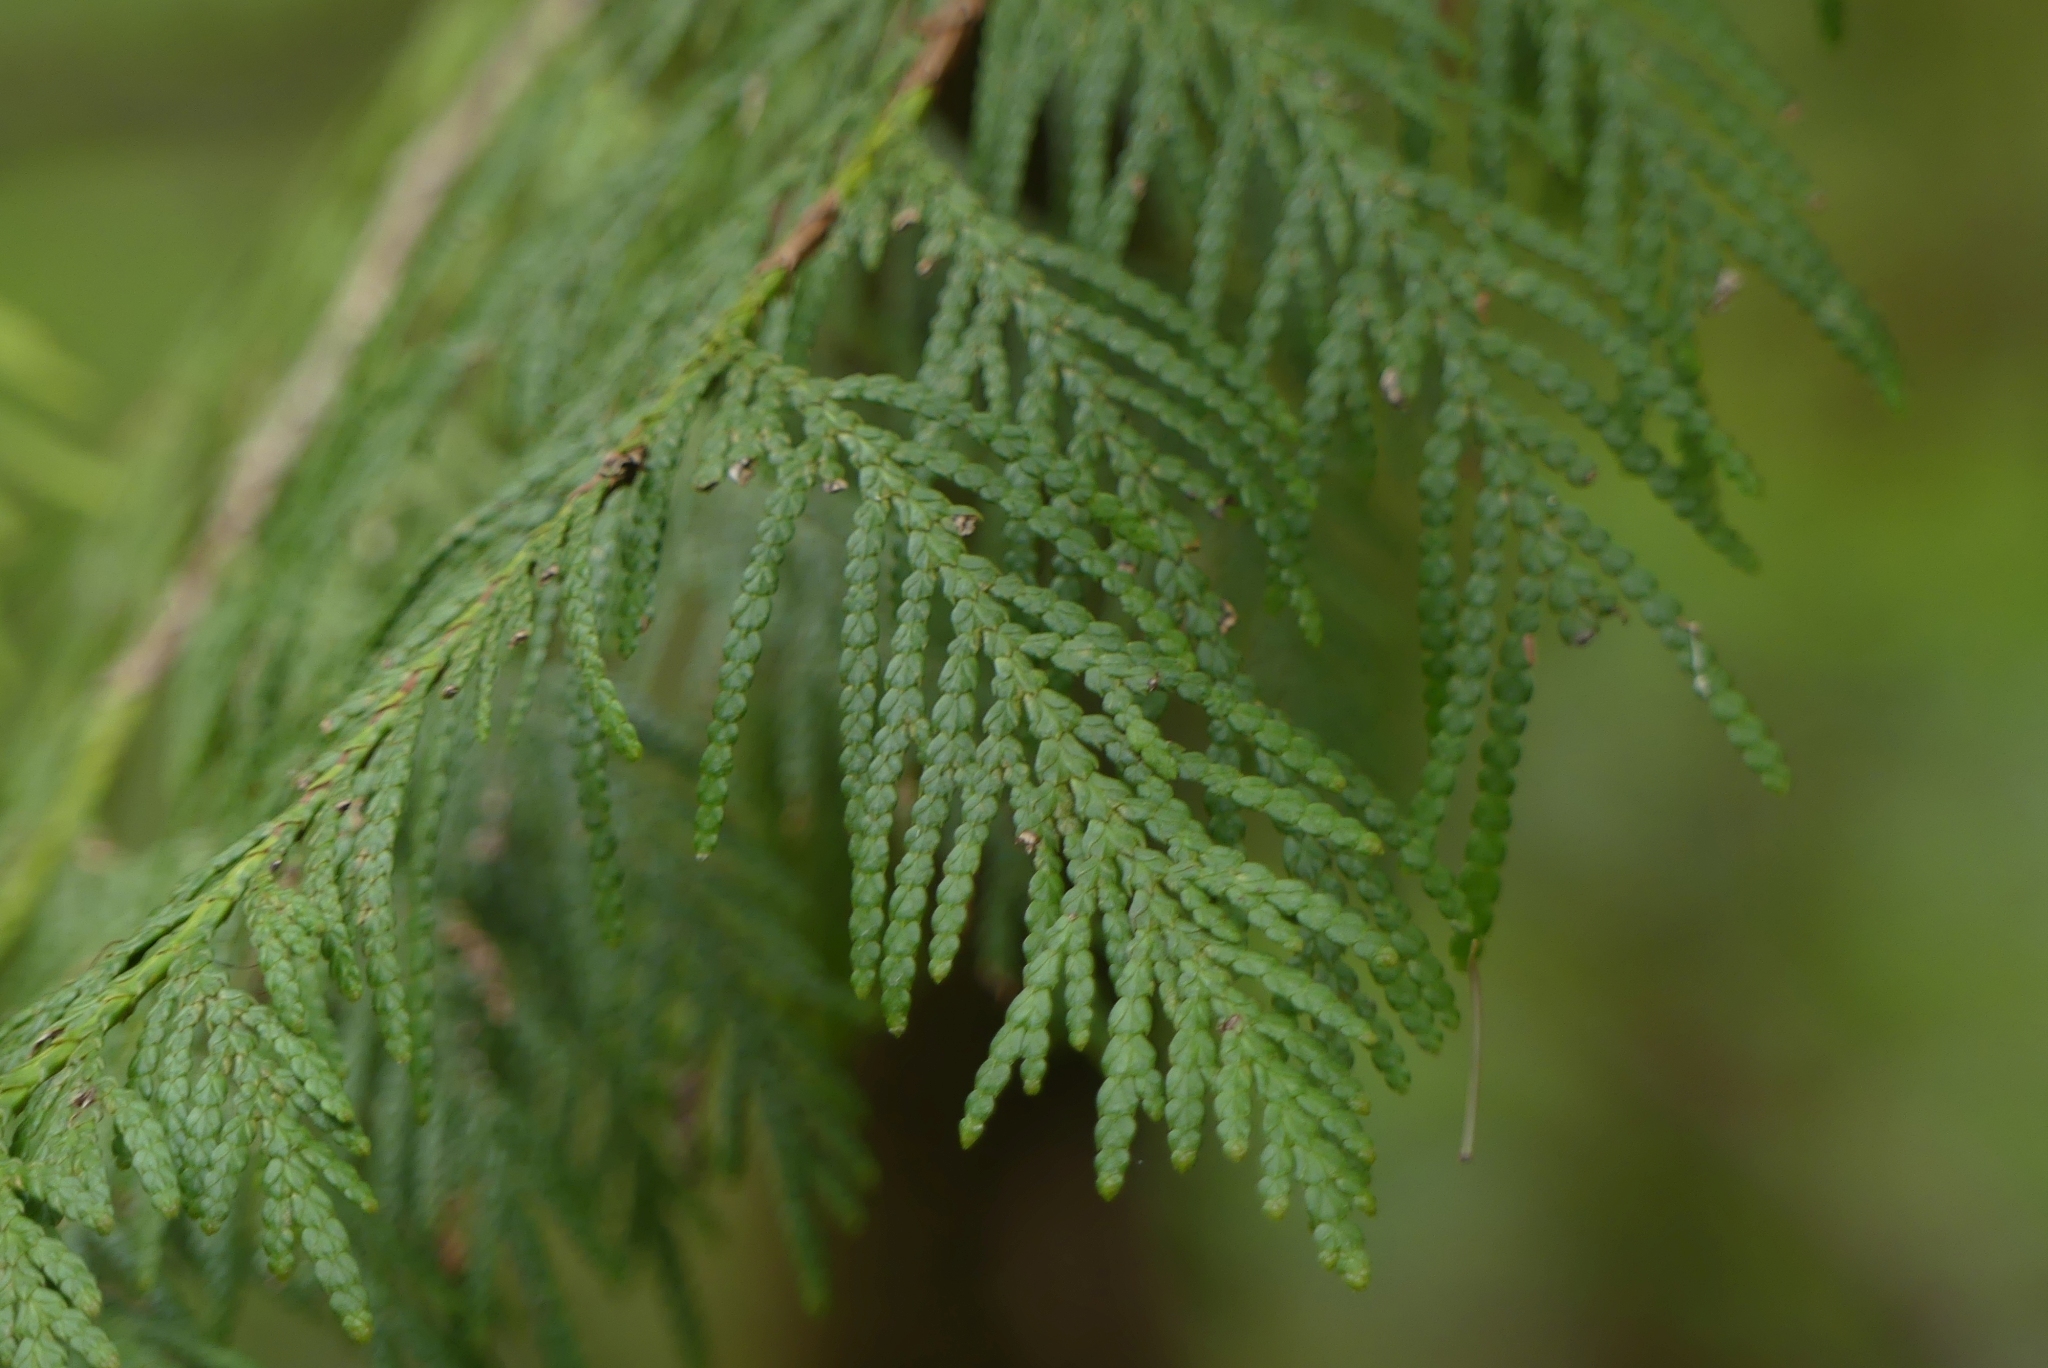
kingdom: Plantae
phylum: Tracheophyta
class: Pinopsida
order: Pinales
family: Cupressaceae
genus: Thuja
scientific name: Thuja plicata
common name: Western red-cedar
